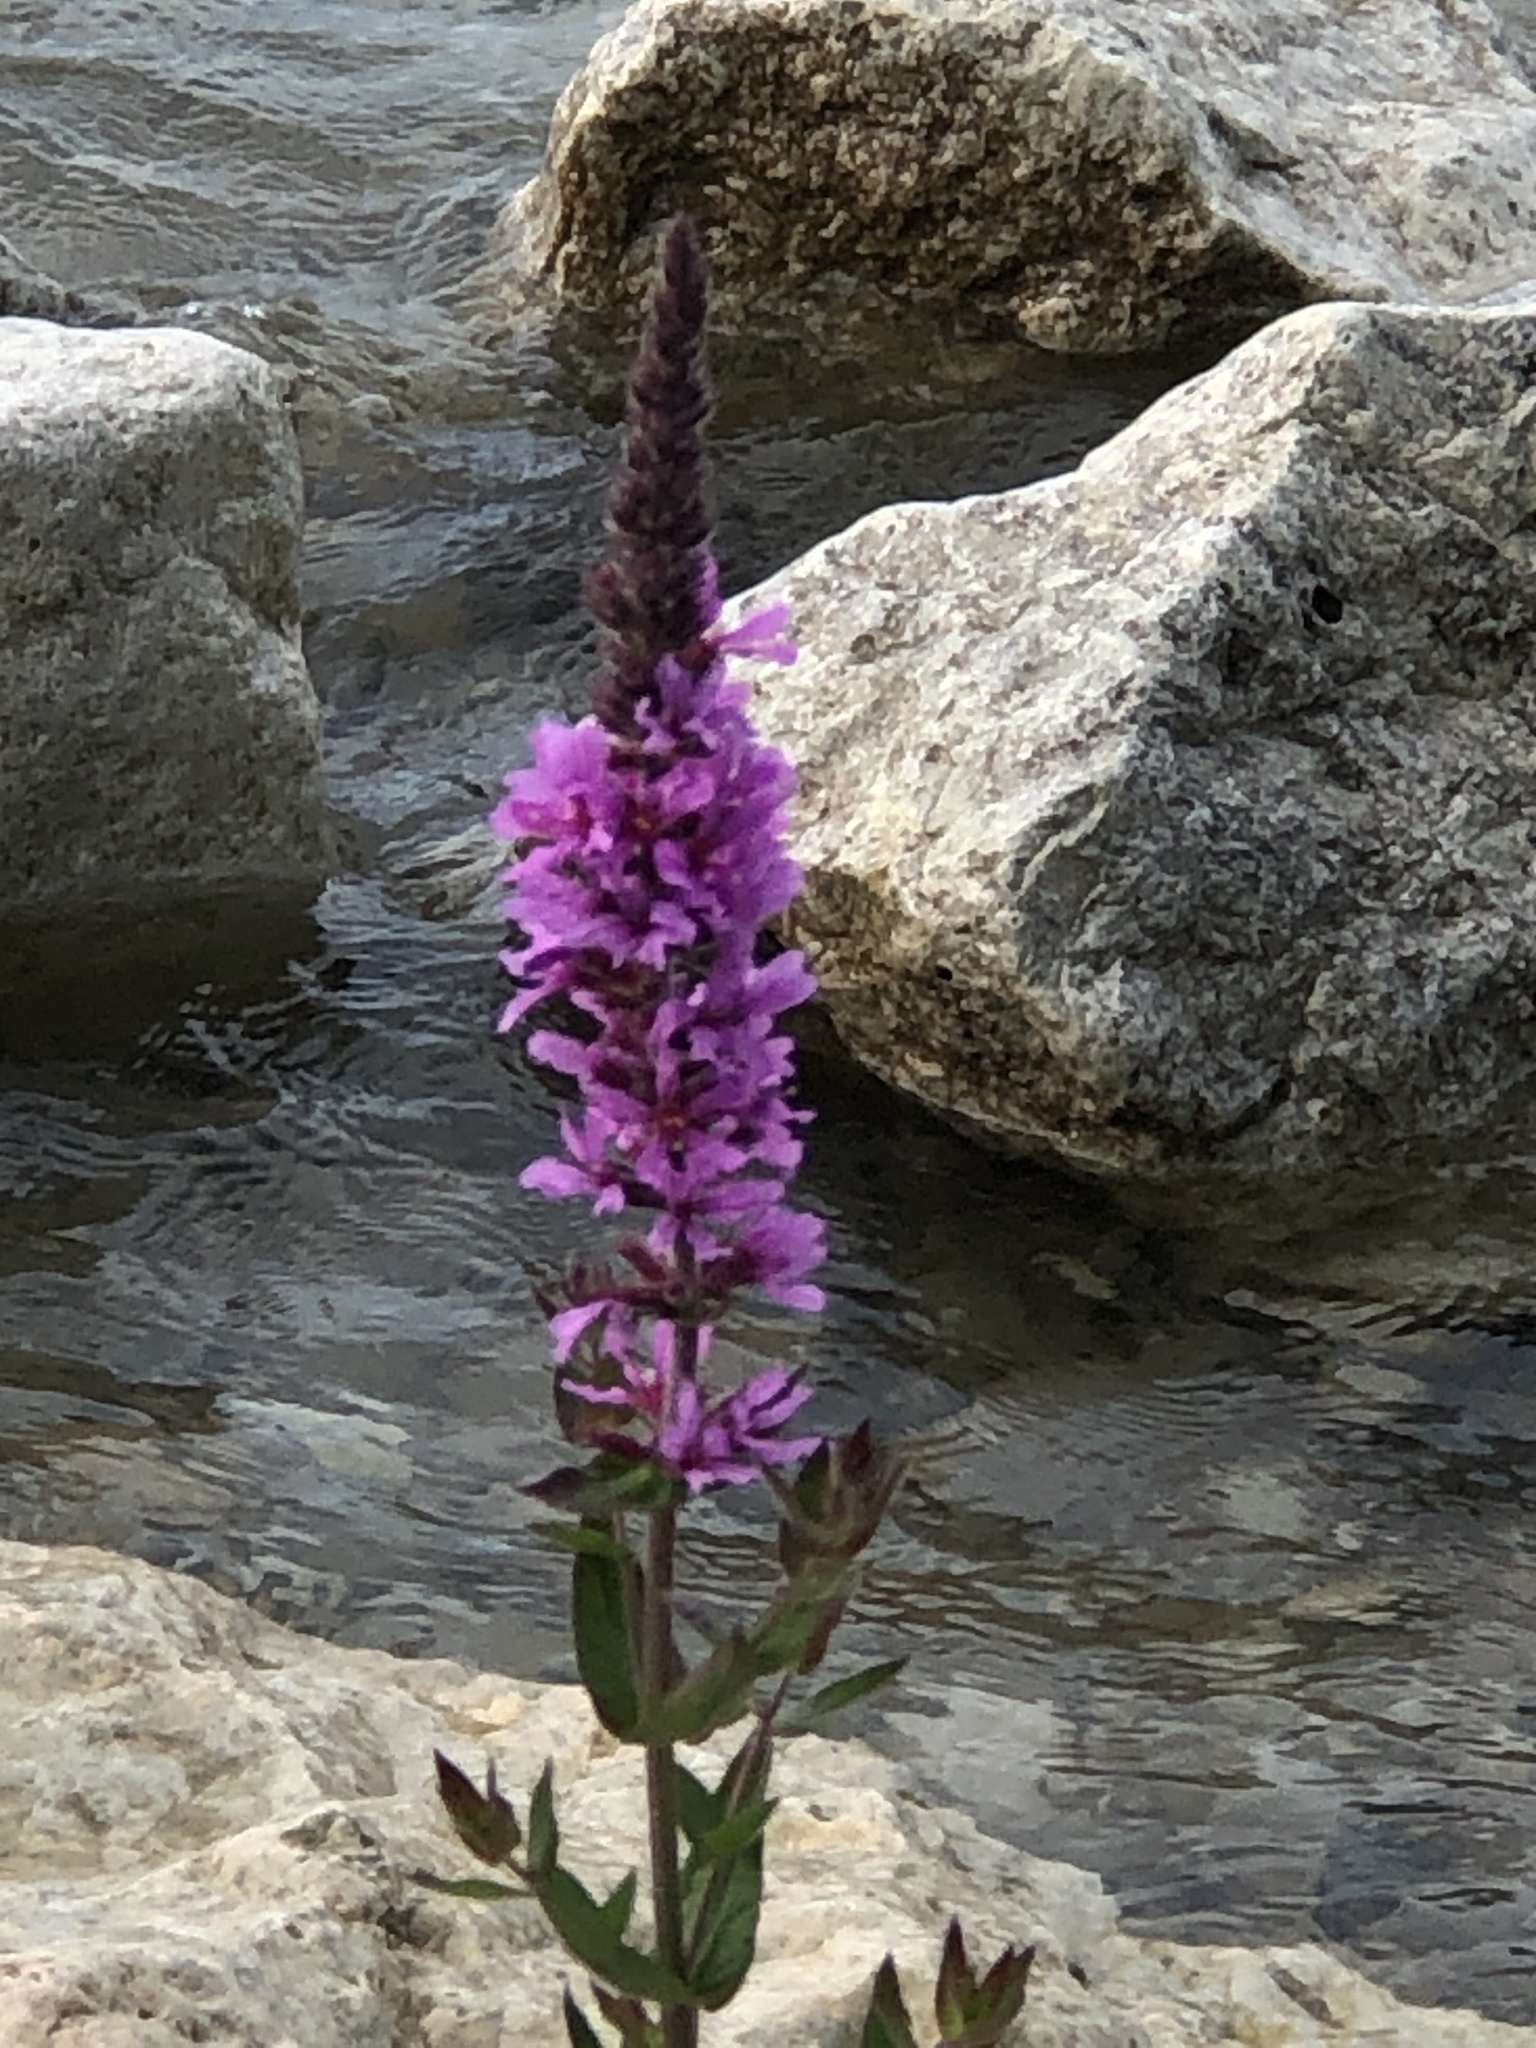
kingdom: Plantae
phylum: Tracheophyta
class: Magnoliopsida
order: Myrtales
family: Lythraceae
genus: Lythrum
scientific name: Lythrum salicaria
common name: Purple loosestrife
